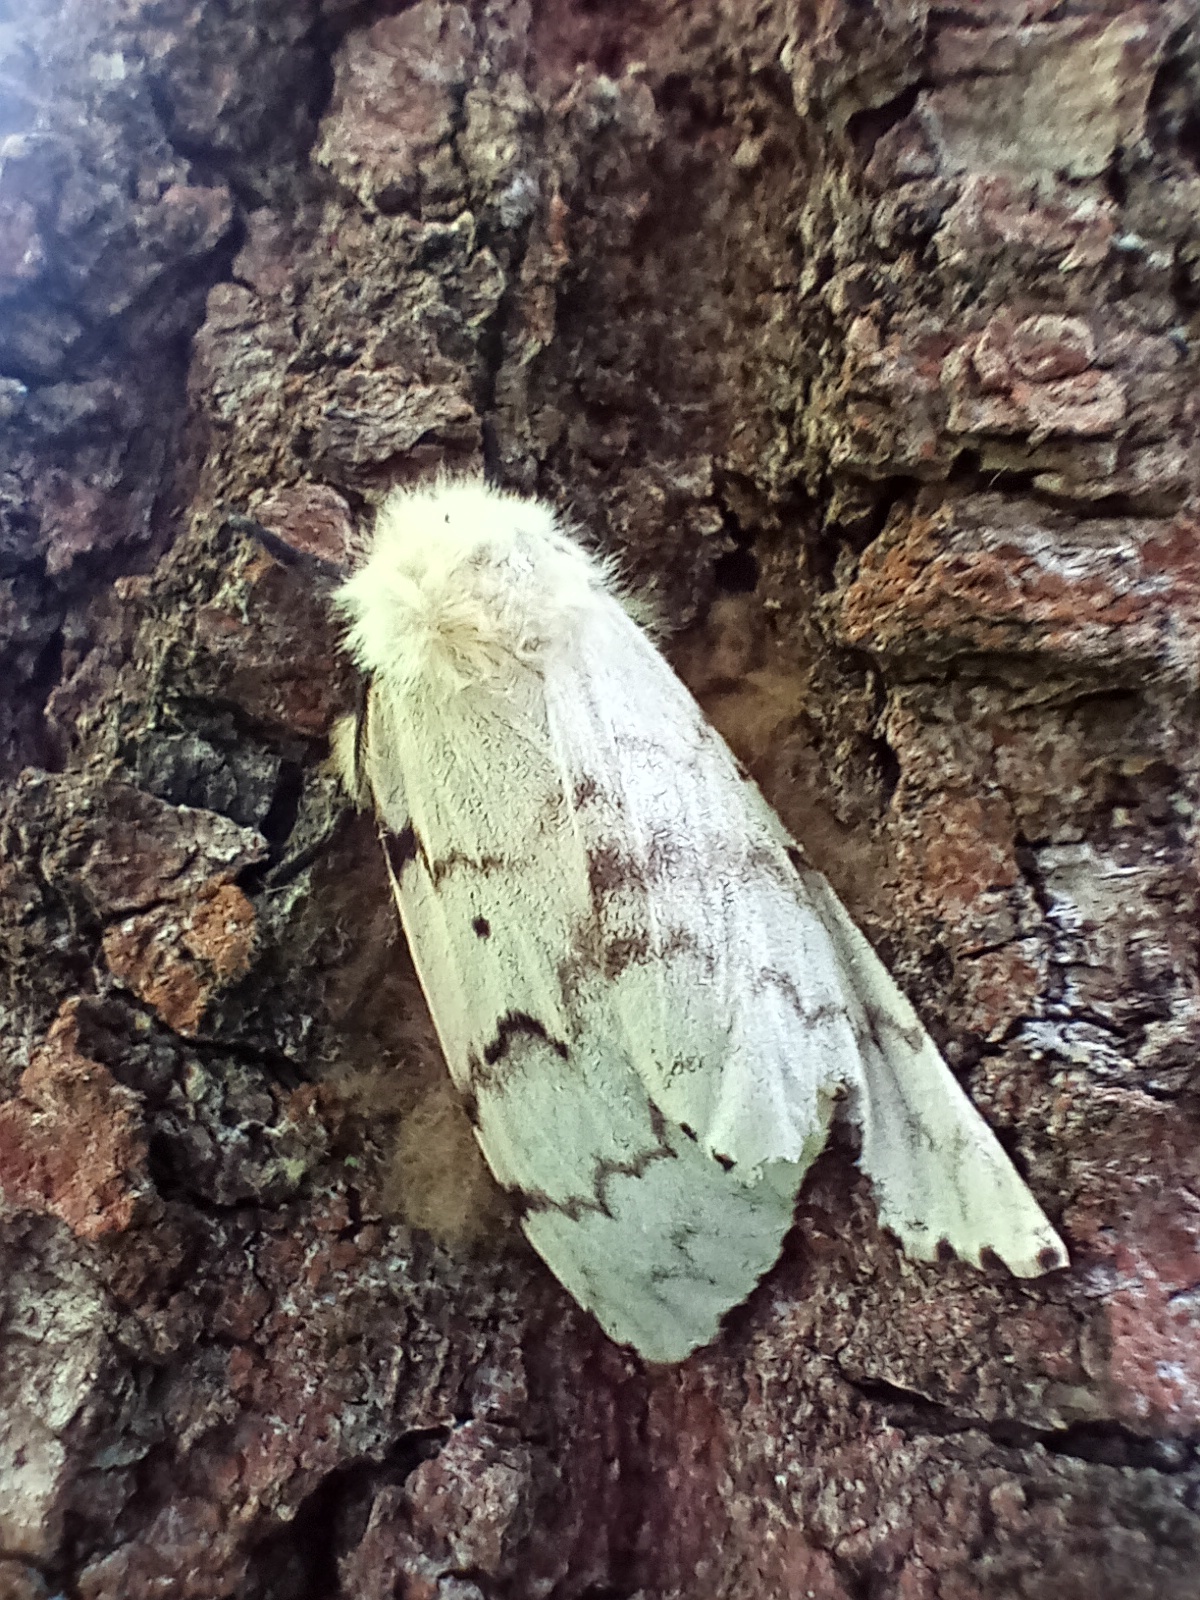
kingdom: Animalia
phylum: Arthropoda
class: Insecta
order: Lepidoptera
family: Erebidae
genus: Lymantria
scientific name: Lymantria dispar
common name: Gypsy moth
